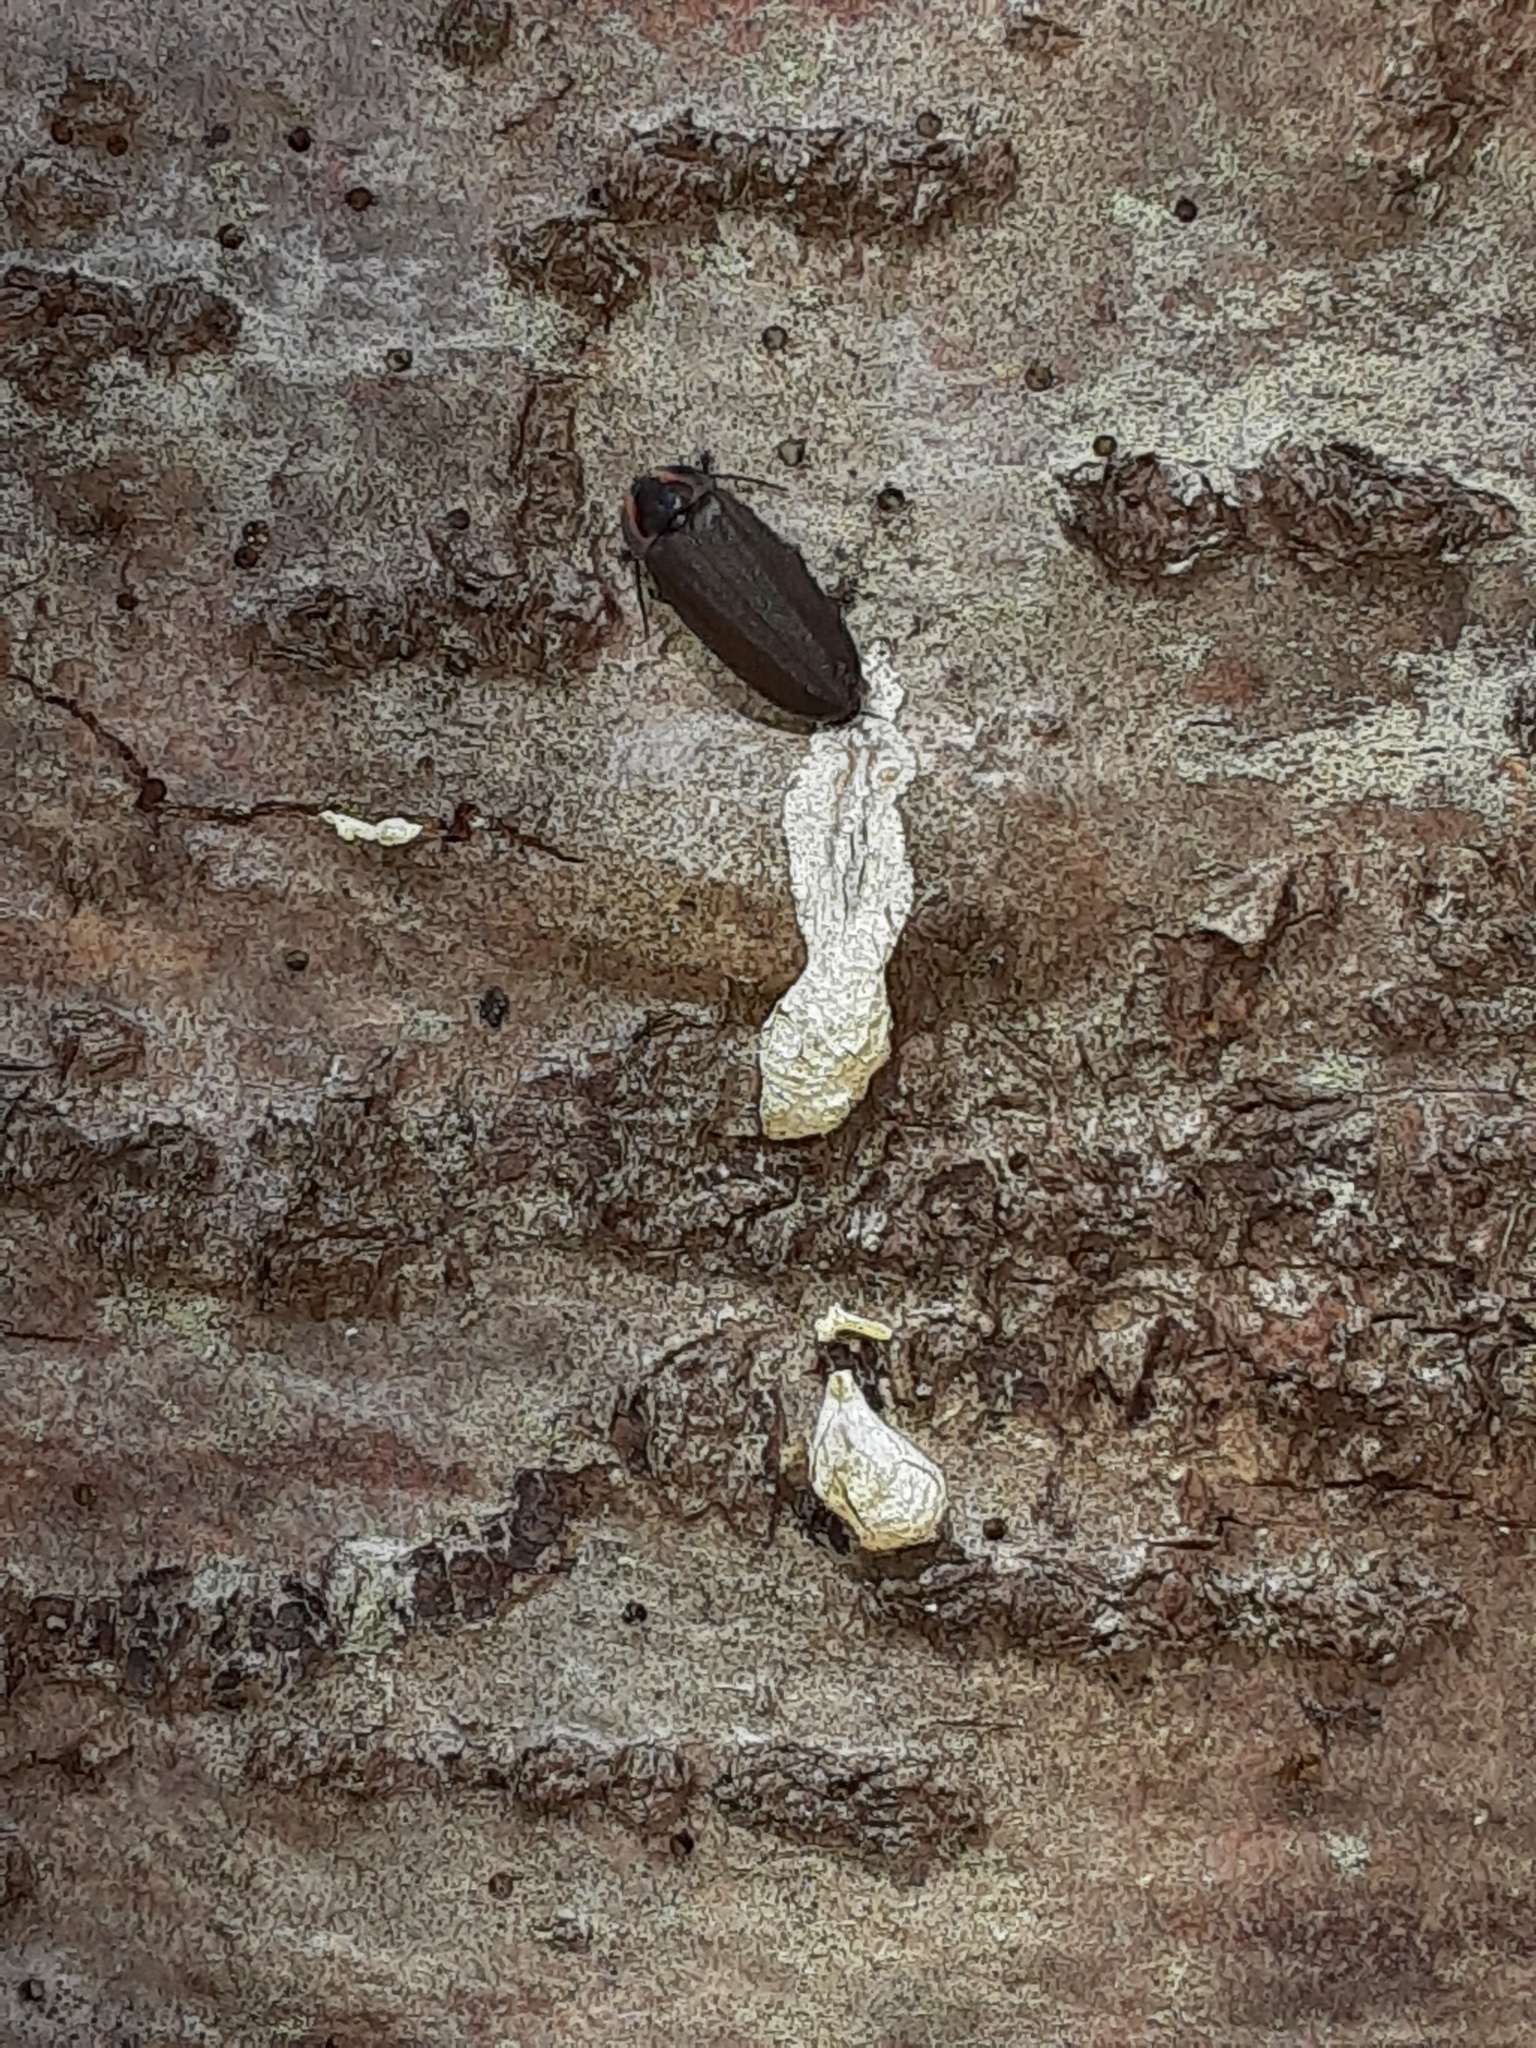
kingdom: Animalia
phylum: Arthropoda
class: Insecta
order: Coleoptera
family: Lampyridae
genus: Photinus
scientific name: Photinus corrusca
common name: Winter firefly
